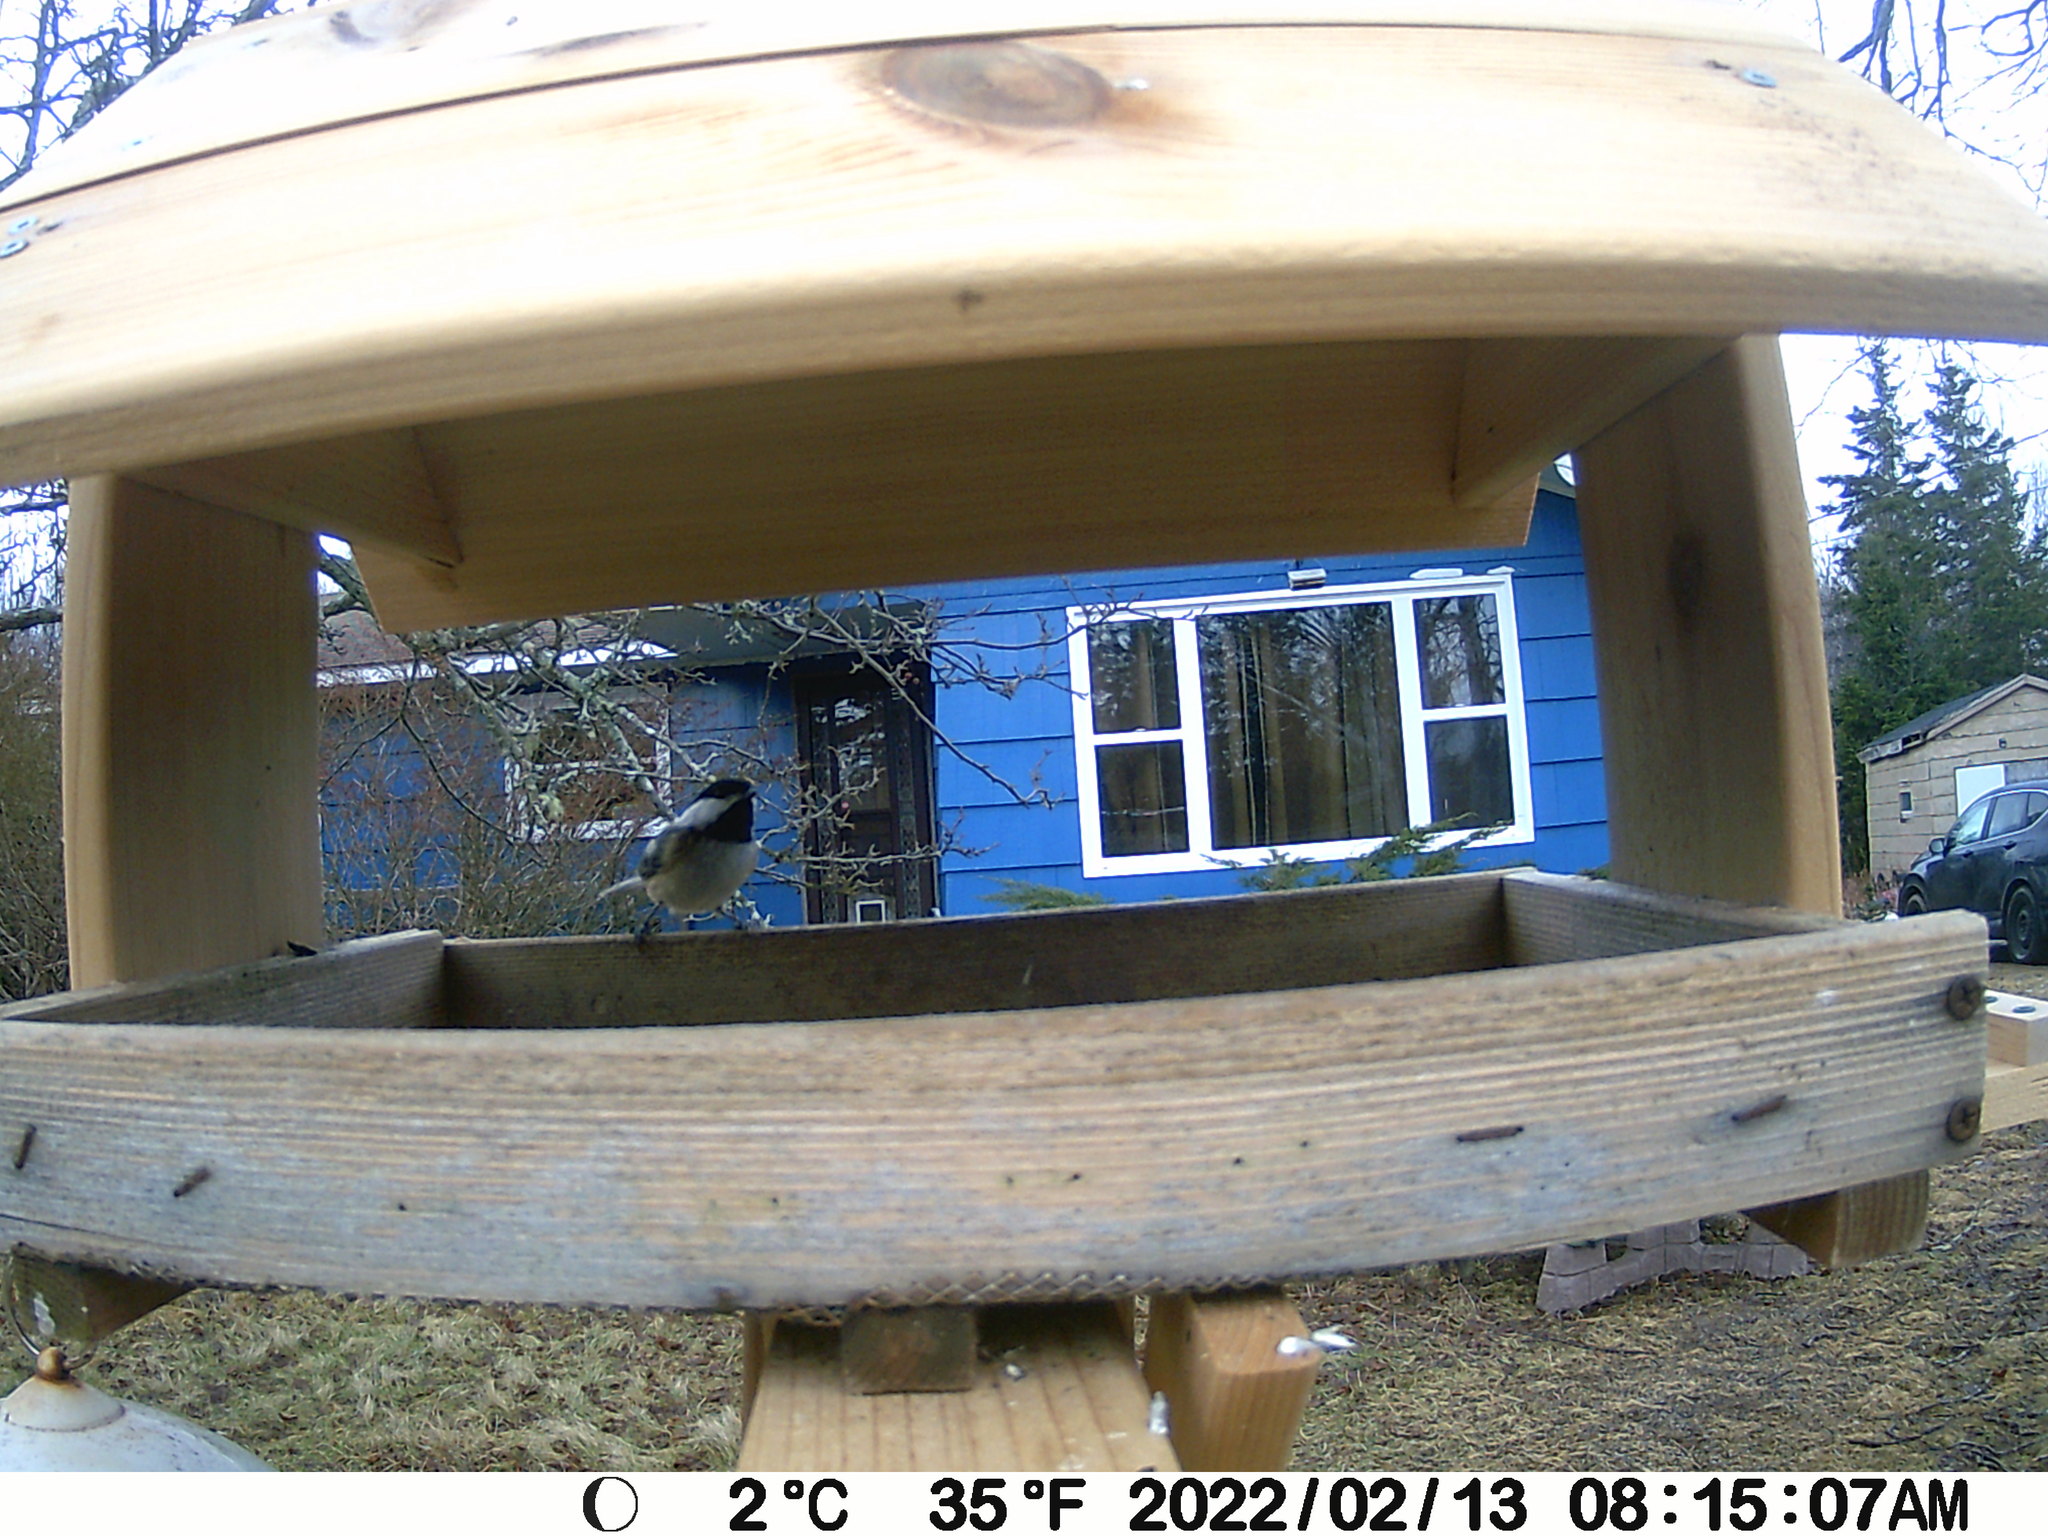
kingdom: Animalia
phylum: Chordata
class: Aves
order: Passeriformes
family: Paridae
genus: Poecile
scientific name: Poecile atricapillus
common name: Black-capped chickadee
